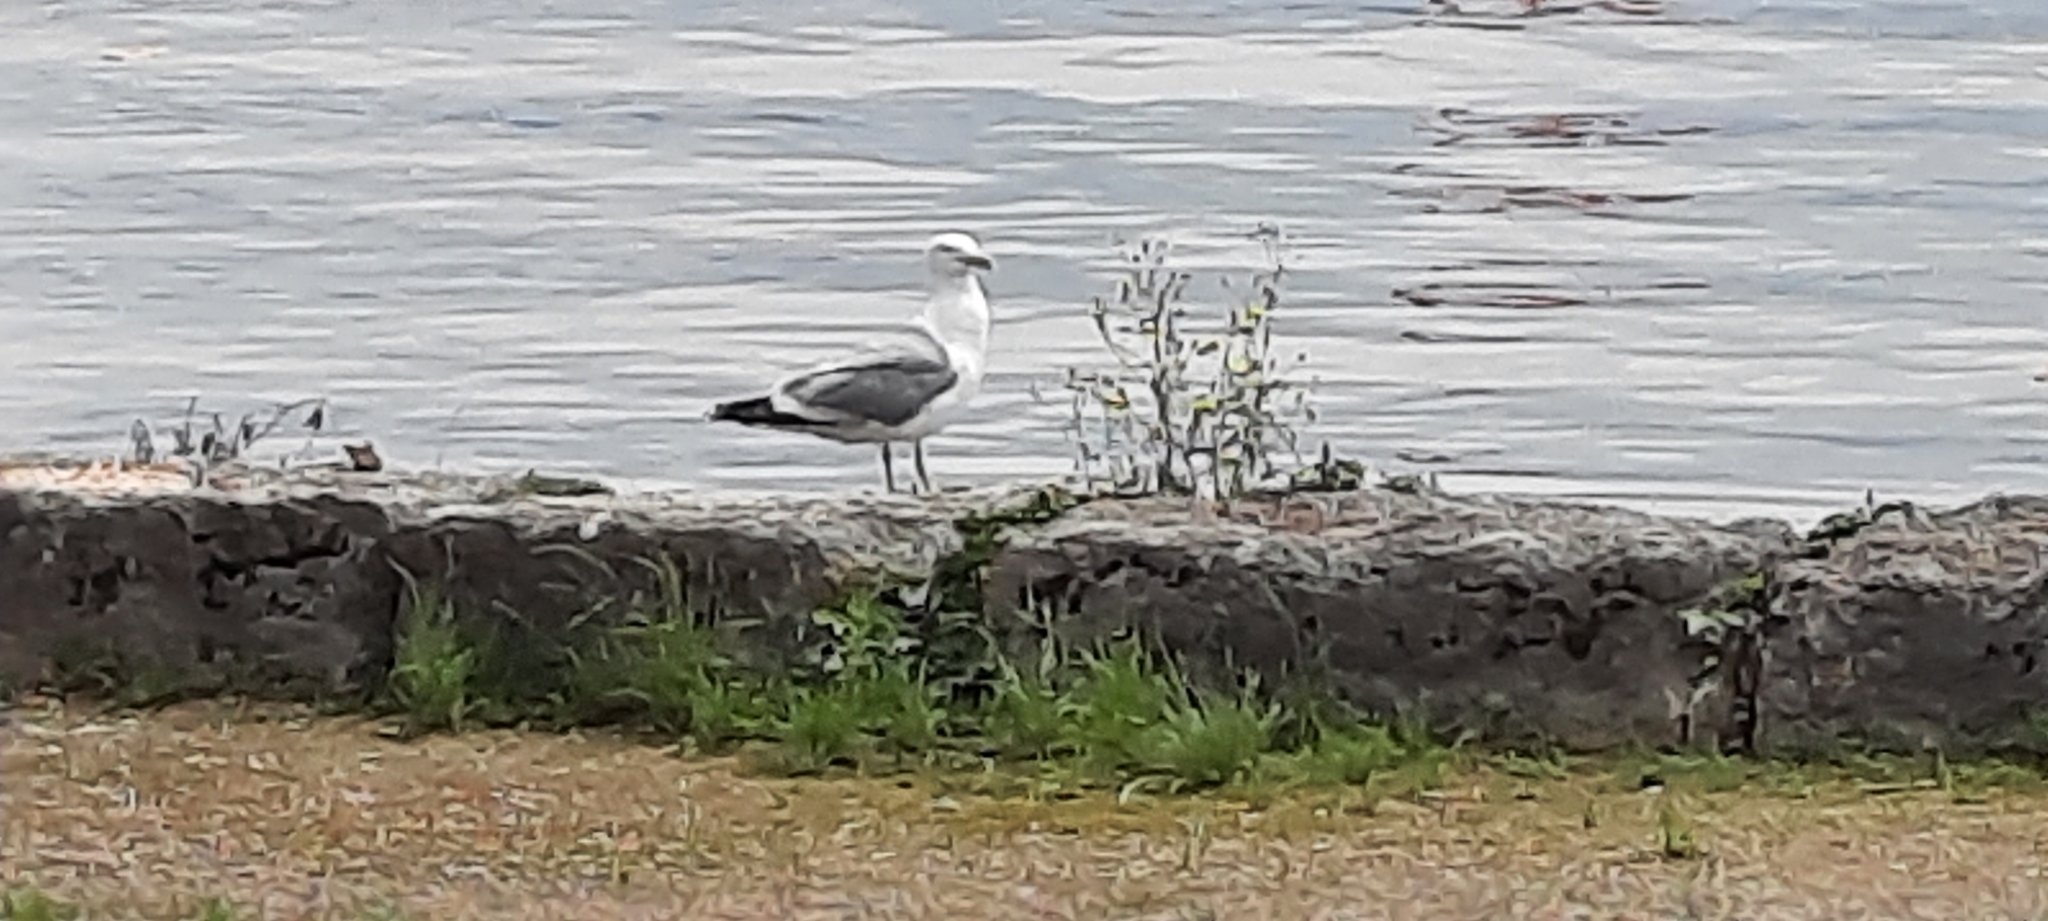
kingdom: Animalia
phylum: Chordata
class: Aves
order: Charadriiformes
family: Laridae
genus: Larus
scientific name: Larus michahellis
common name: Yellow-legged gull
